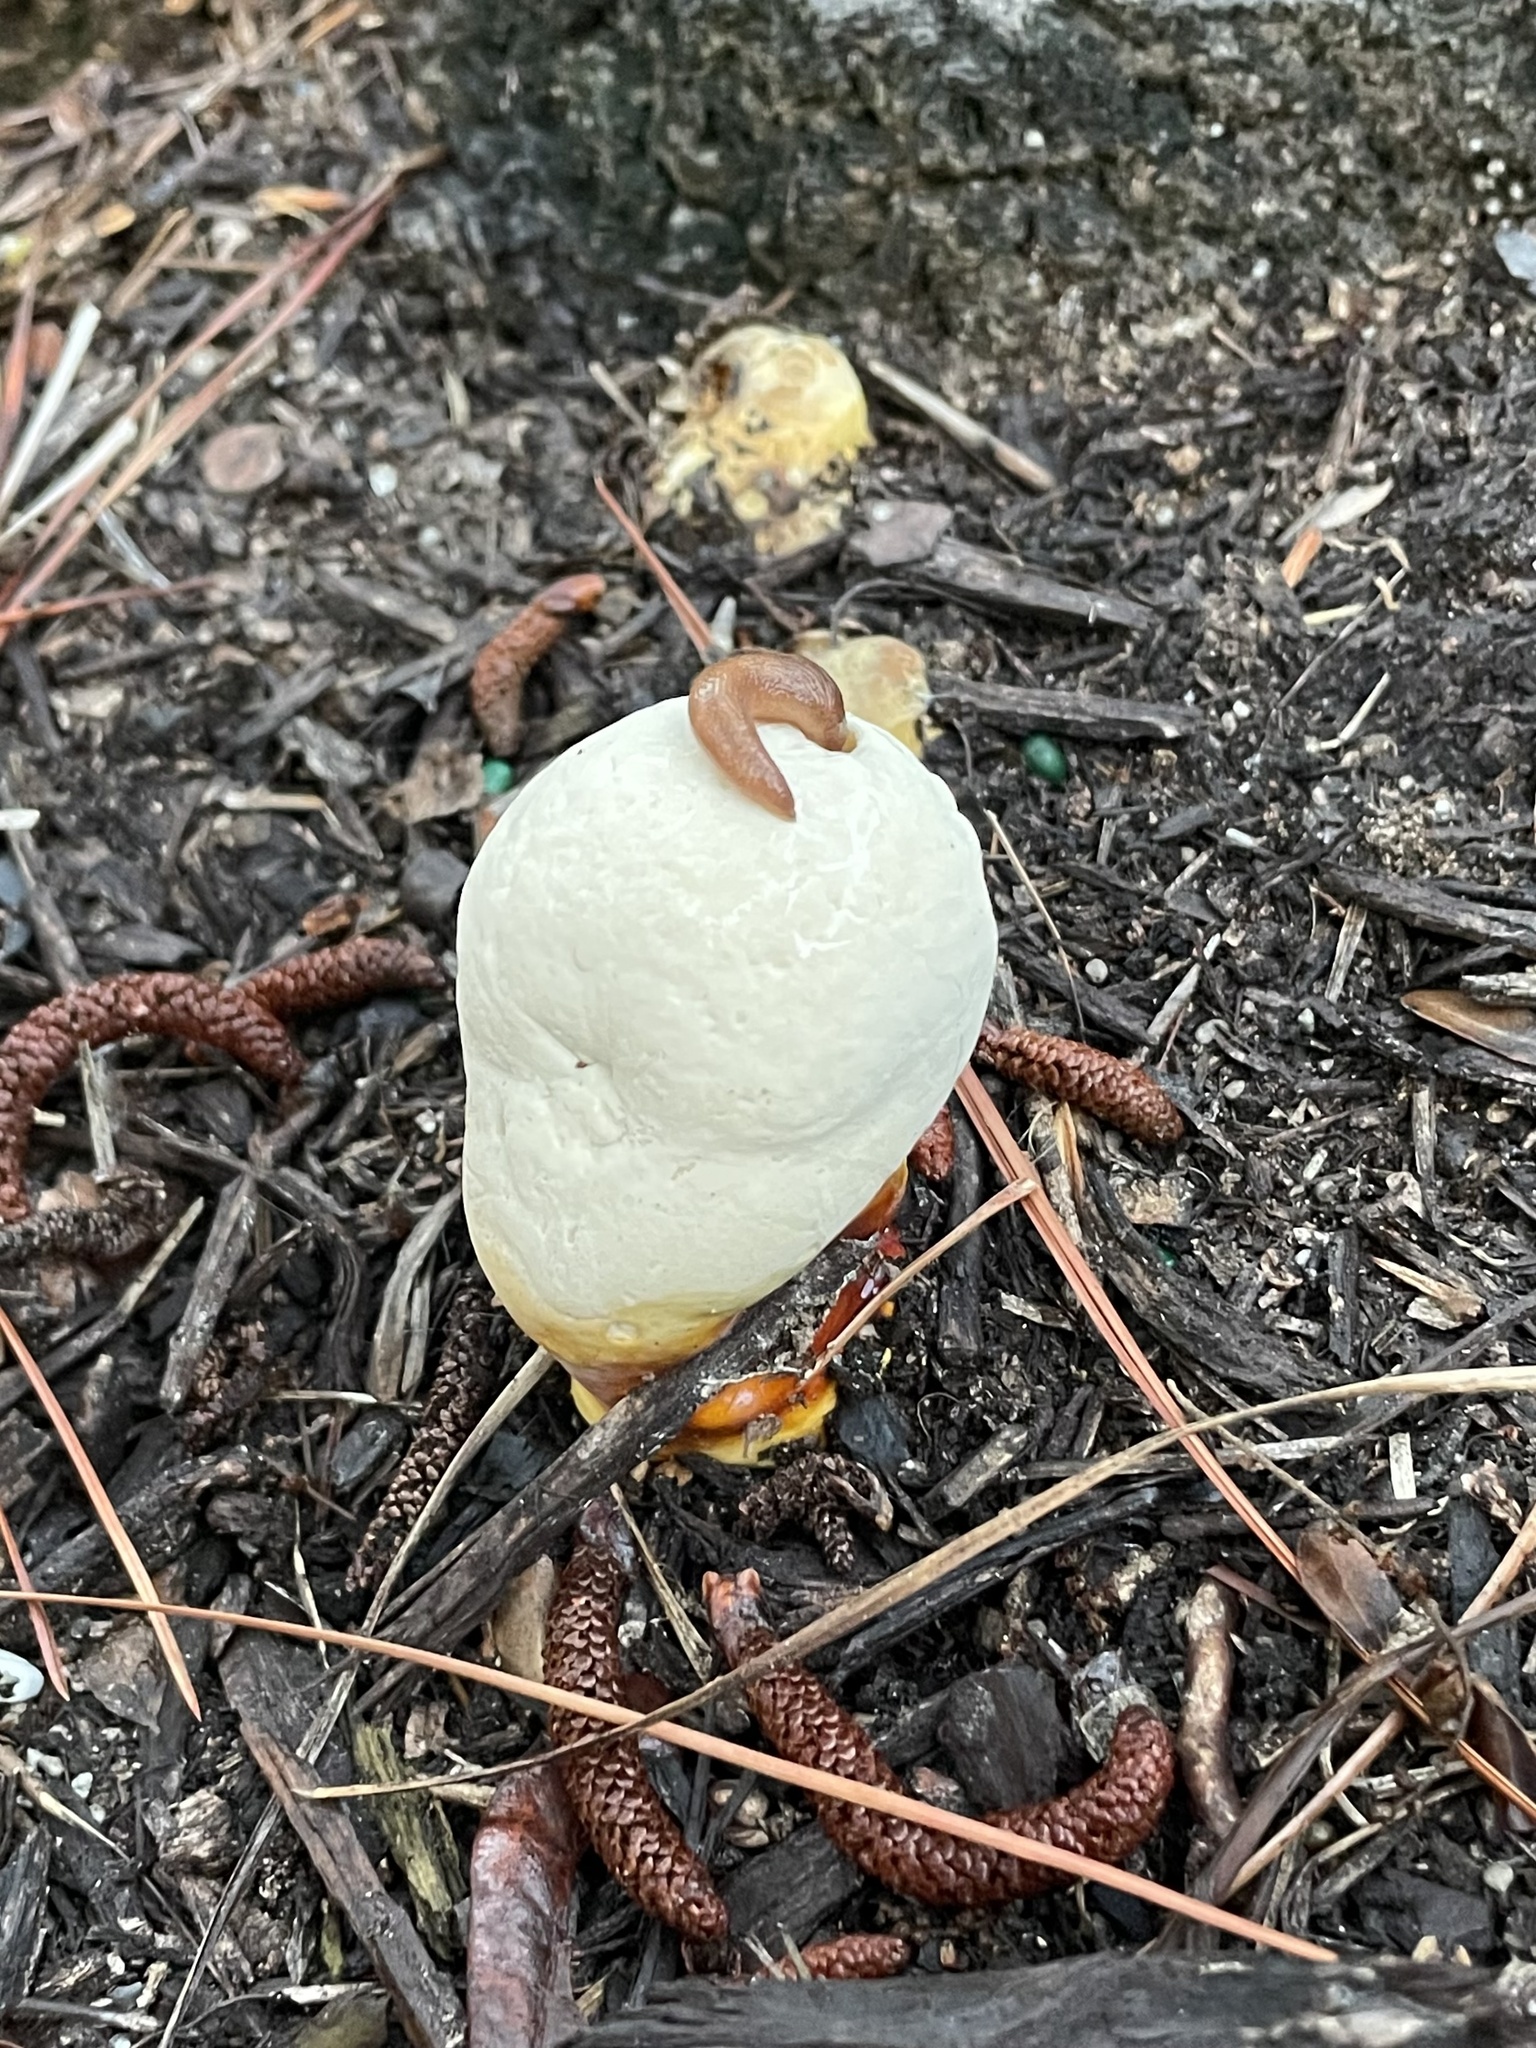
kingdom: Fungi
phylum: Basidiomycota
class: Agaricomycetes
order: Polyporales
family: Polyporaceae
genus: Ganoderma
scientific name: Ganoderma curtisii
